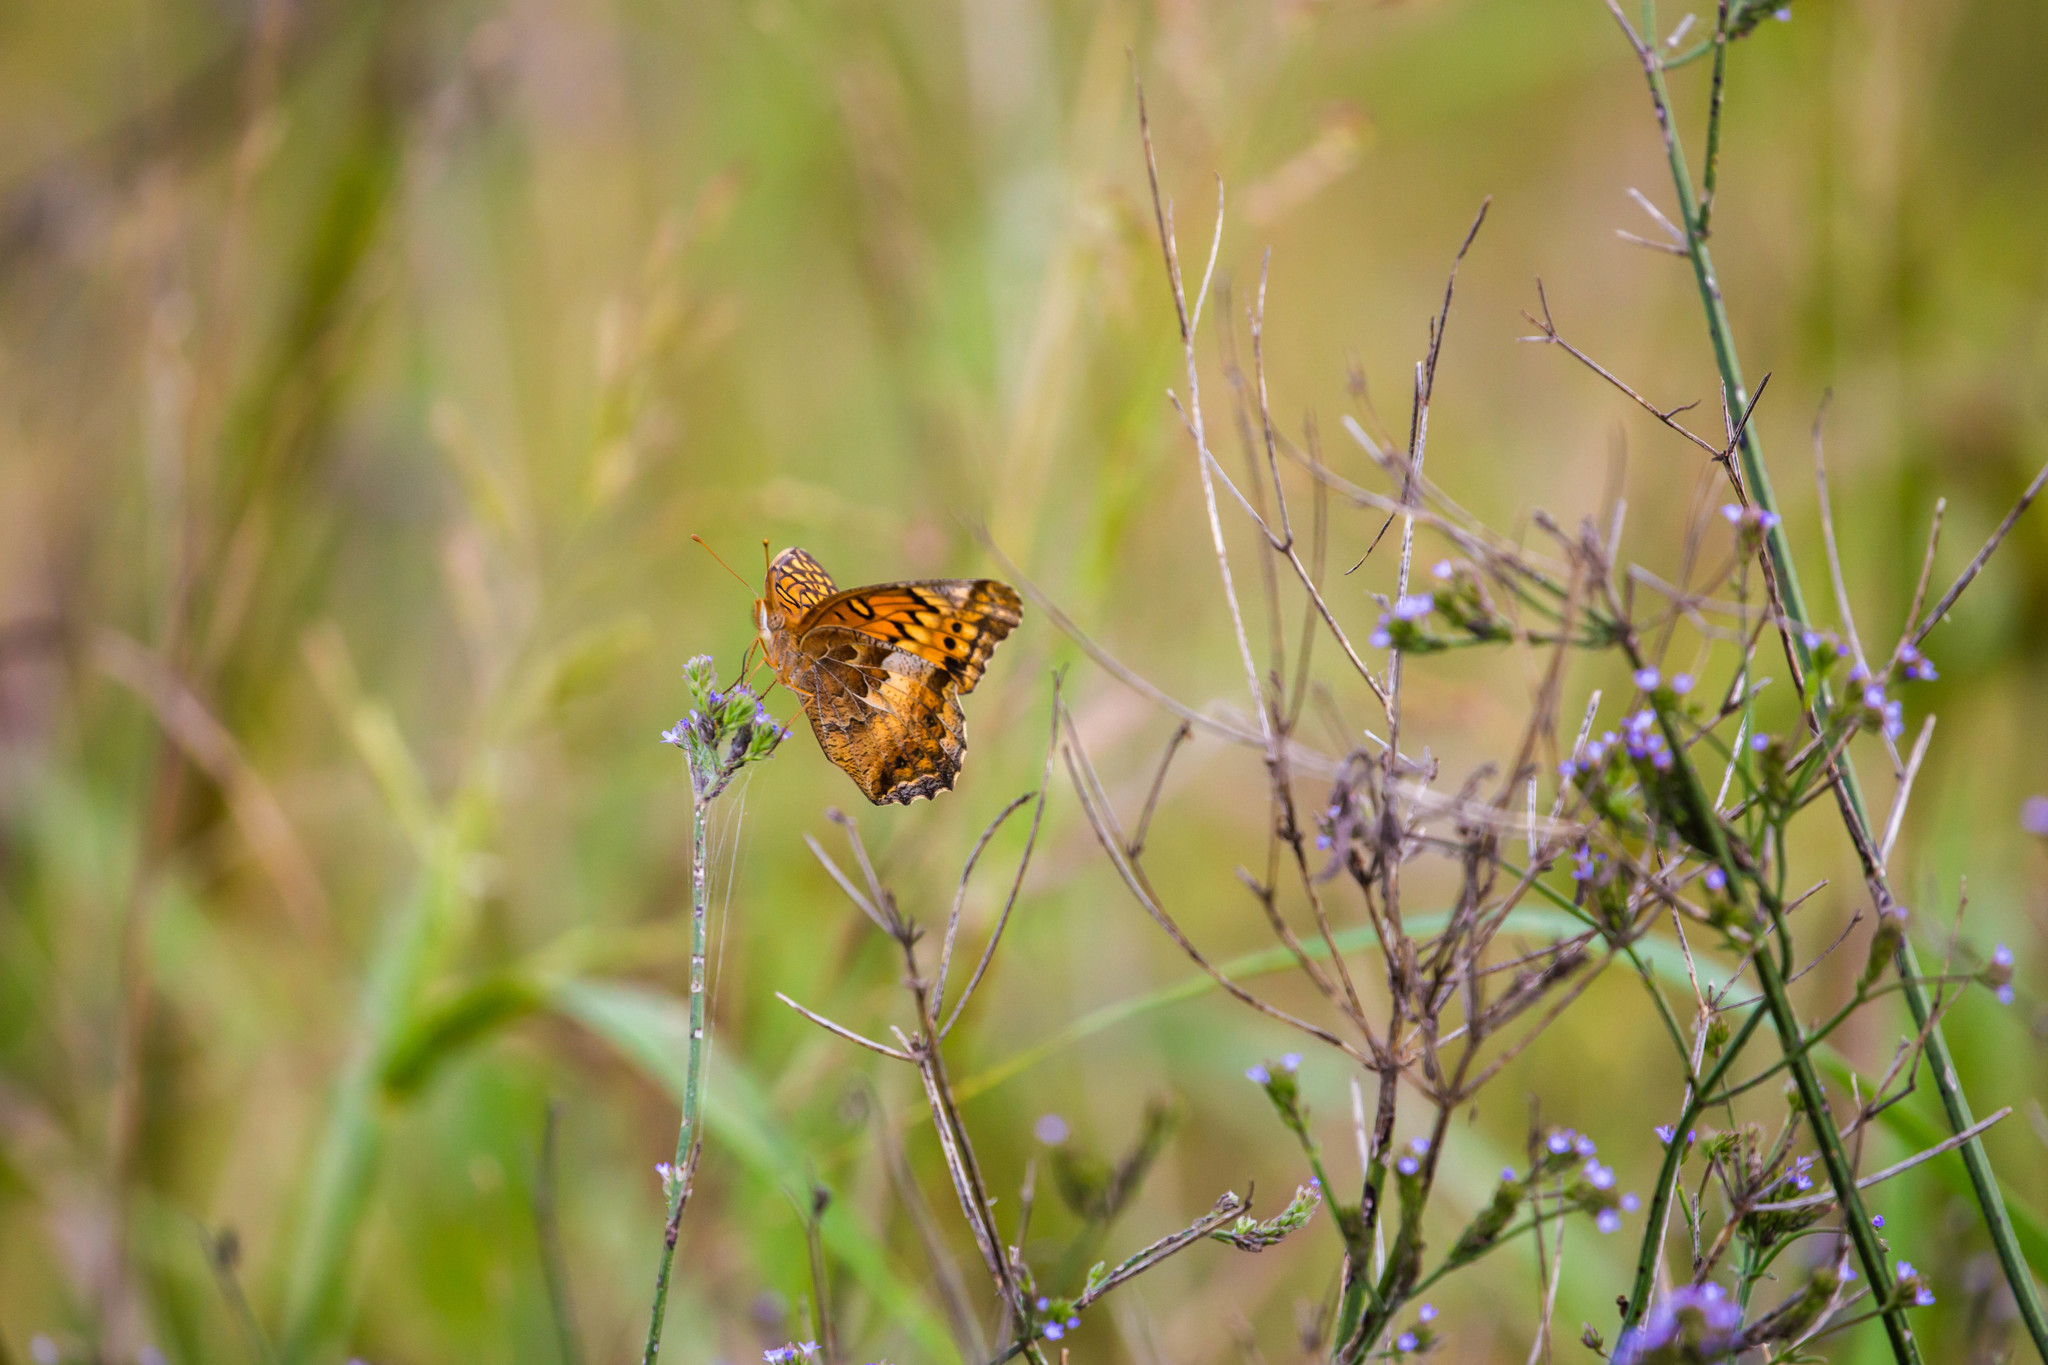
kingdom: Animalia
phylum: Arthropoda
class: Insecta
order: Lepidoptera
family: Nymphalidae
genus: Euptoieta
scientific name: Euptoieta claudia
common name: Variegated fritillary
